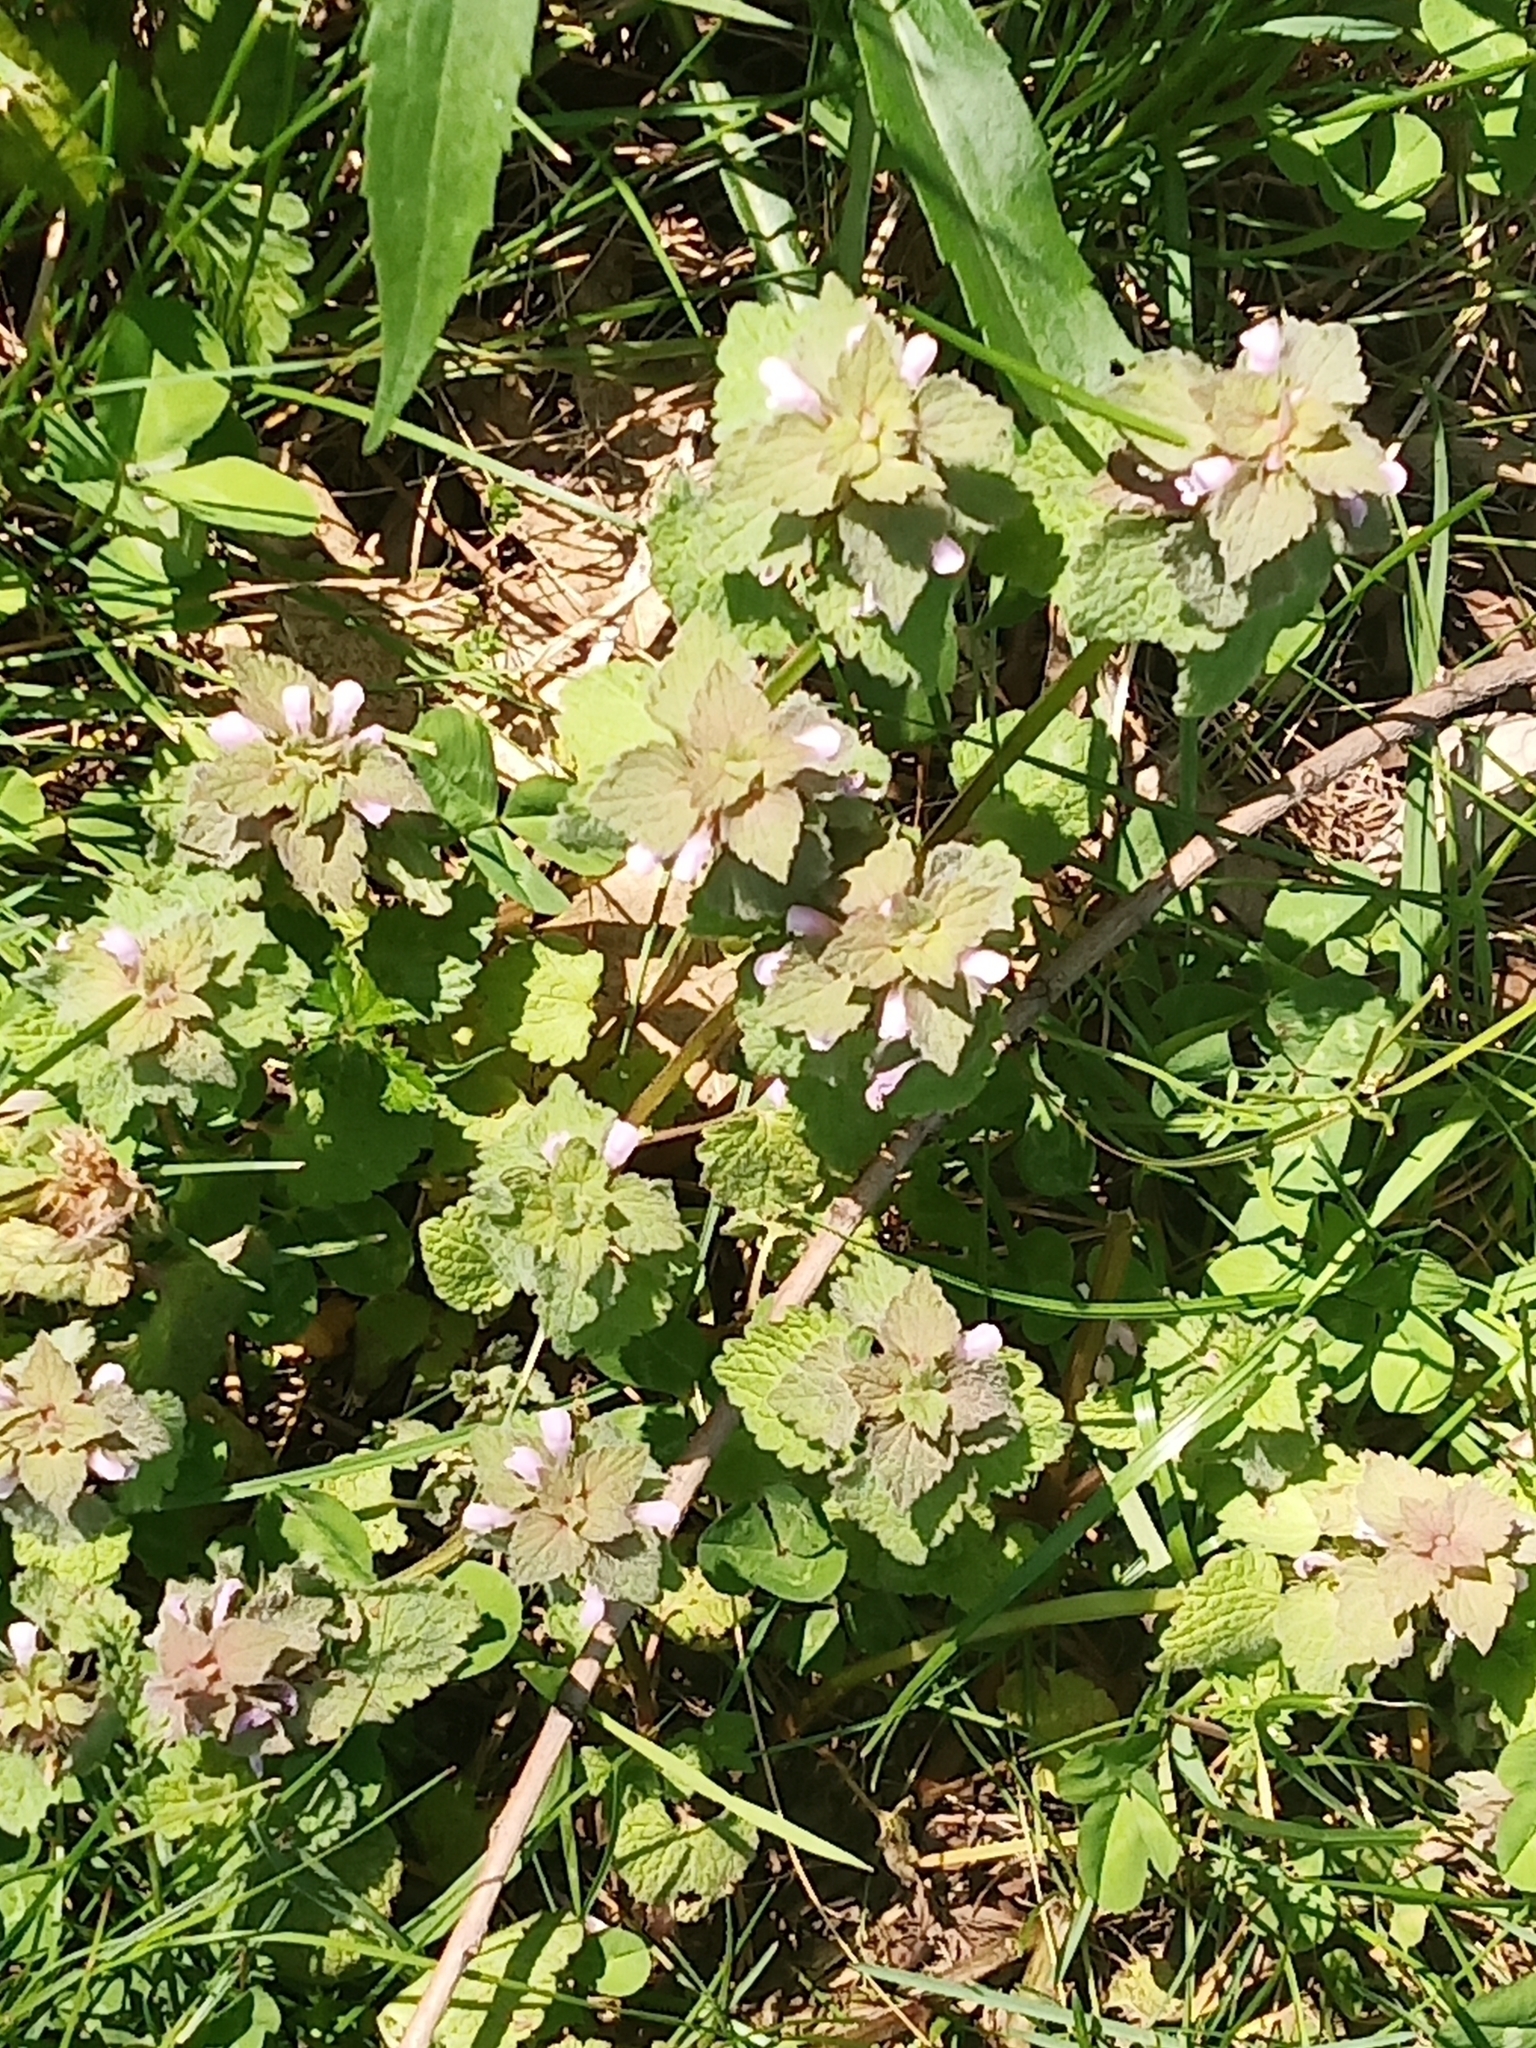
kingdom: Plantae
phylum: Tracheophyta
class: Magnoliopsida
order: Lamiales
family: Lamiaceae
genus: Lamium
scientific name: Lamium purpureum
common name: Red dead-nettle
